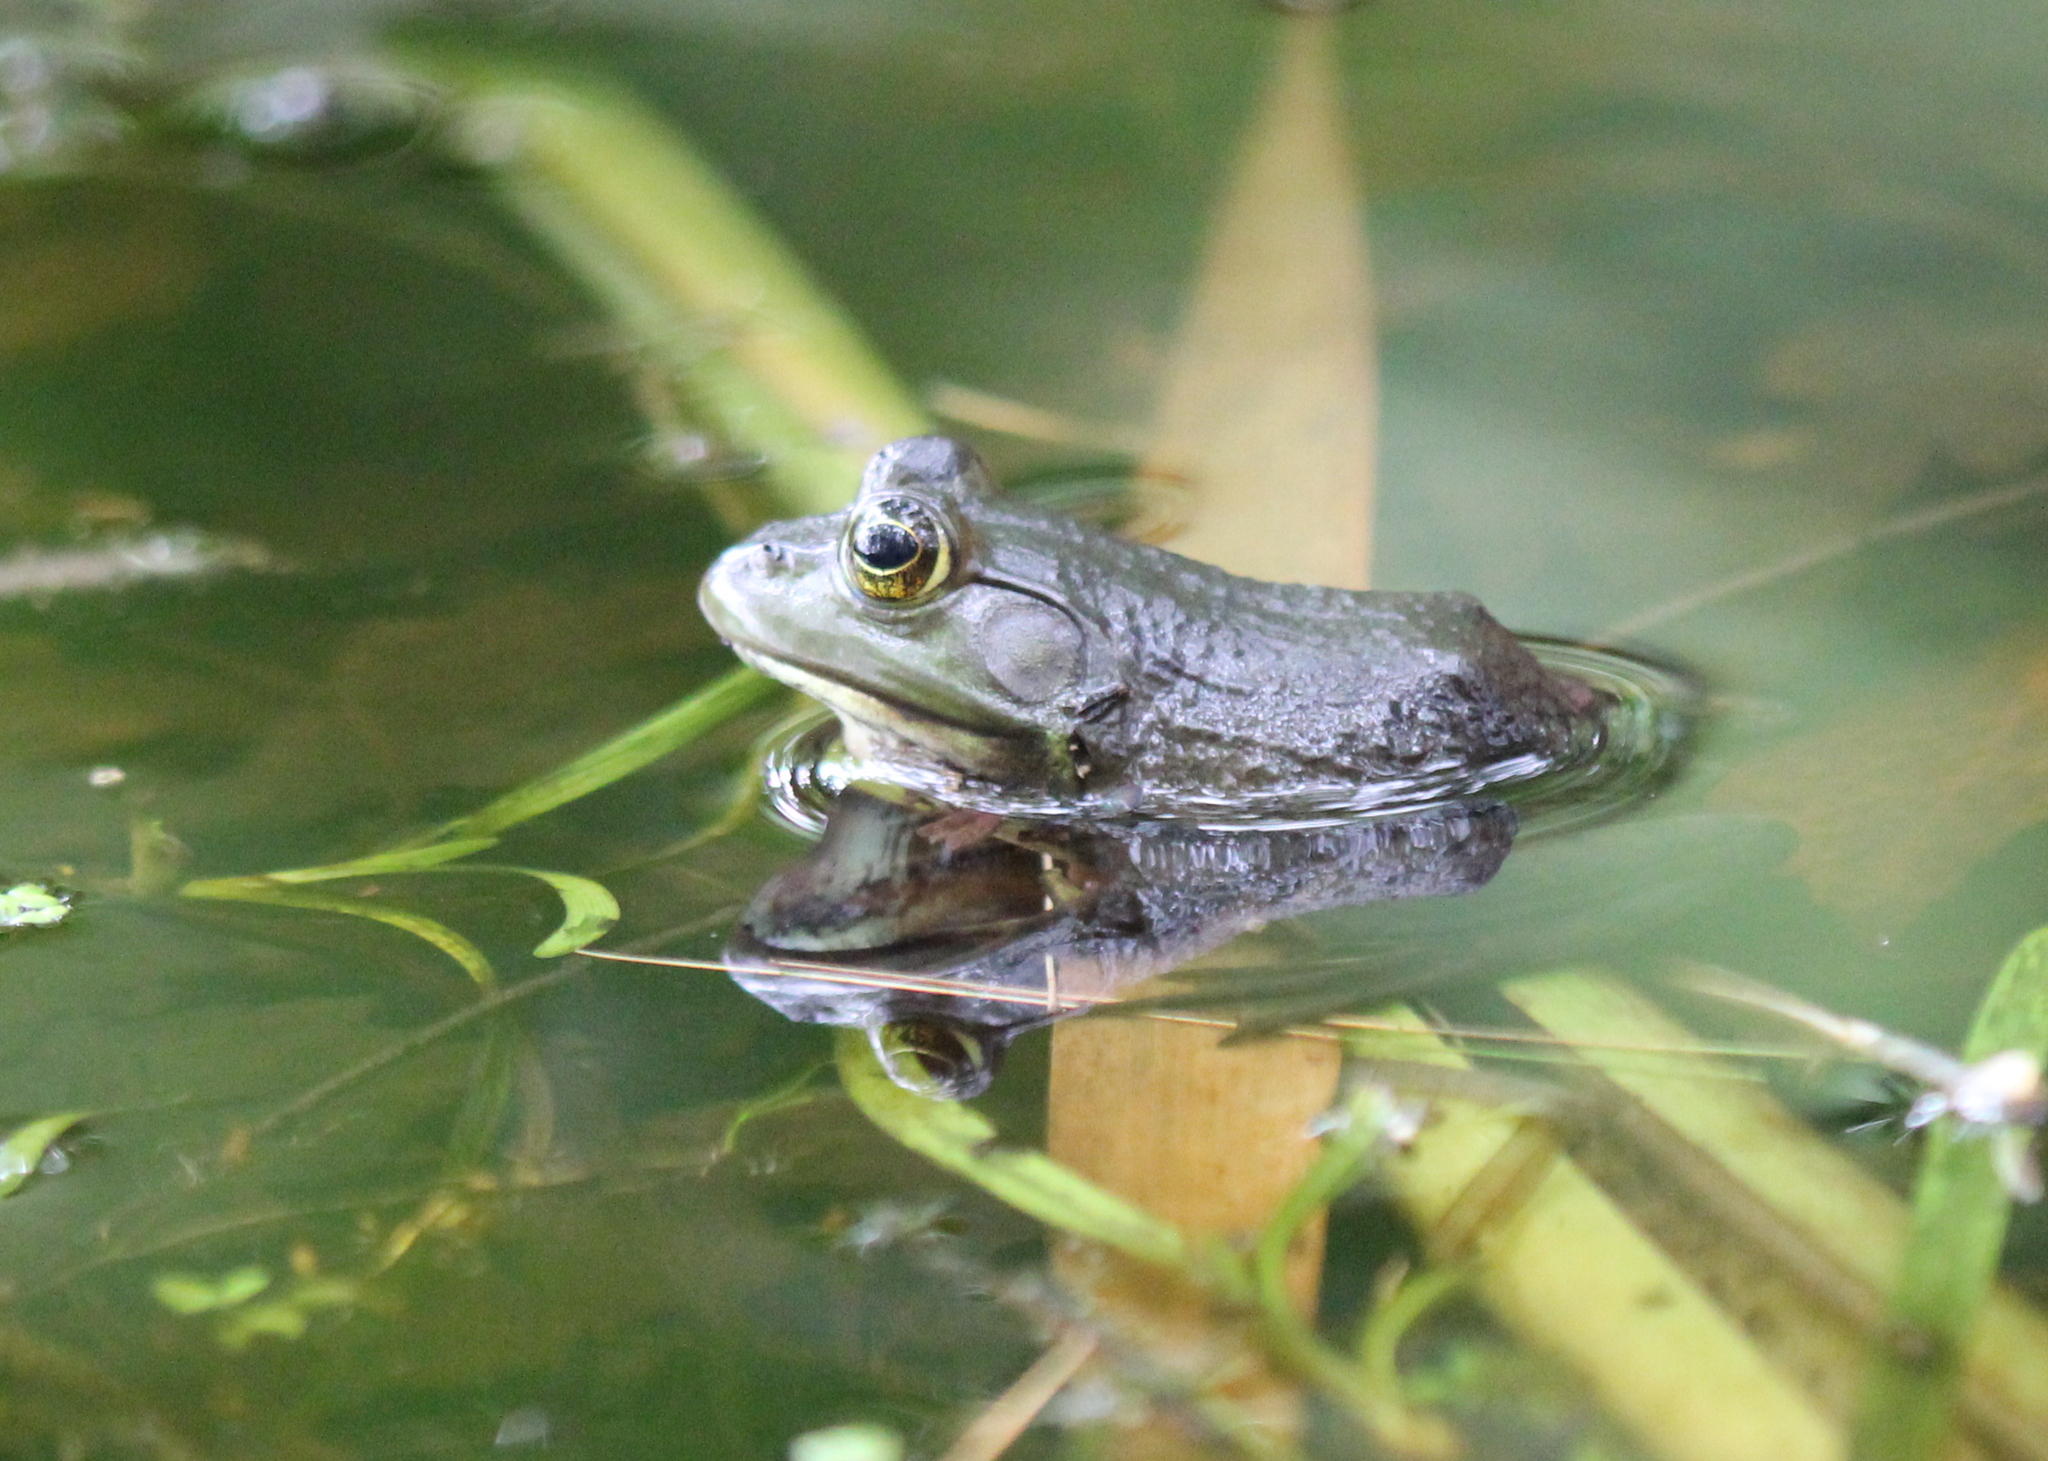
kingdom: Animalia
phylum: Chordata
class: Amphibia
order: Anura
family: Ranidae
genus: Lithobates
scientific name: Lithobates catesbeianus
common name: American bullfrog
